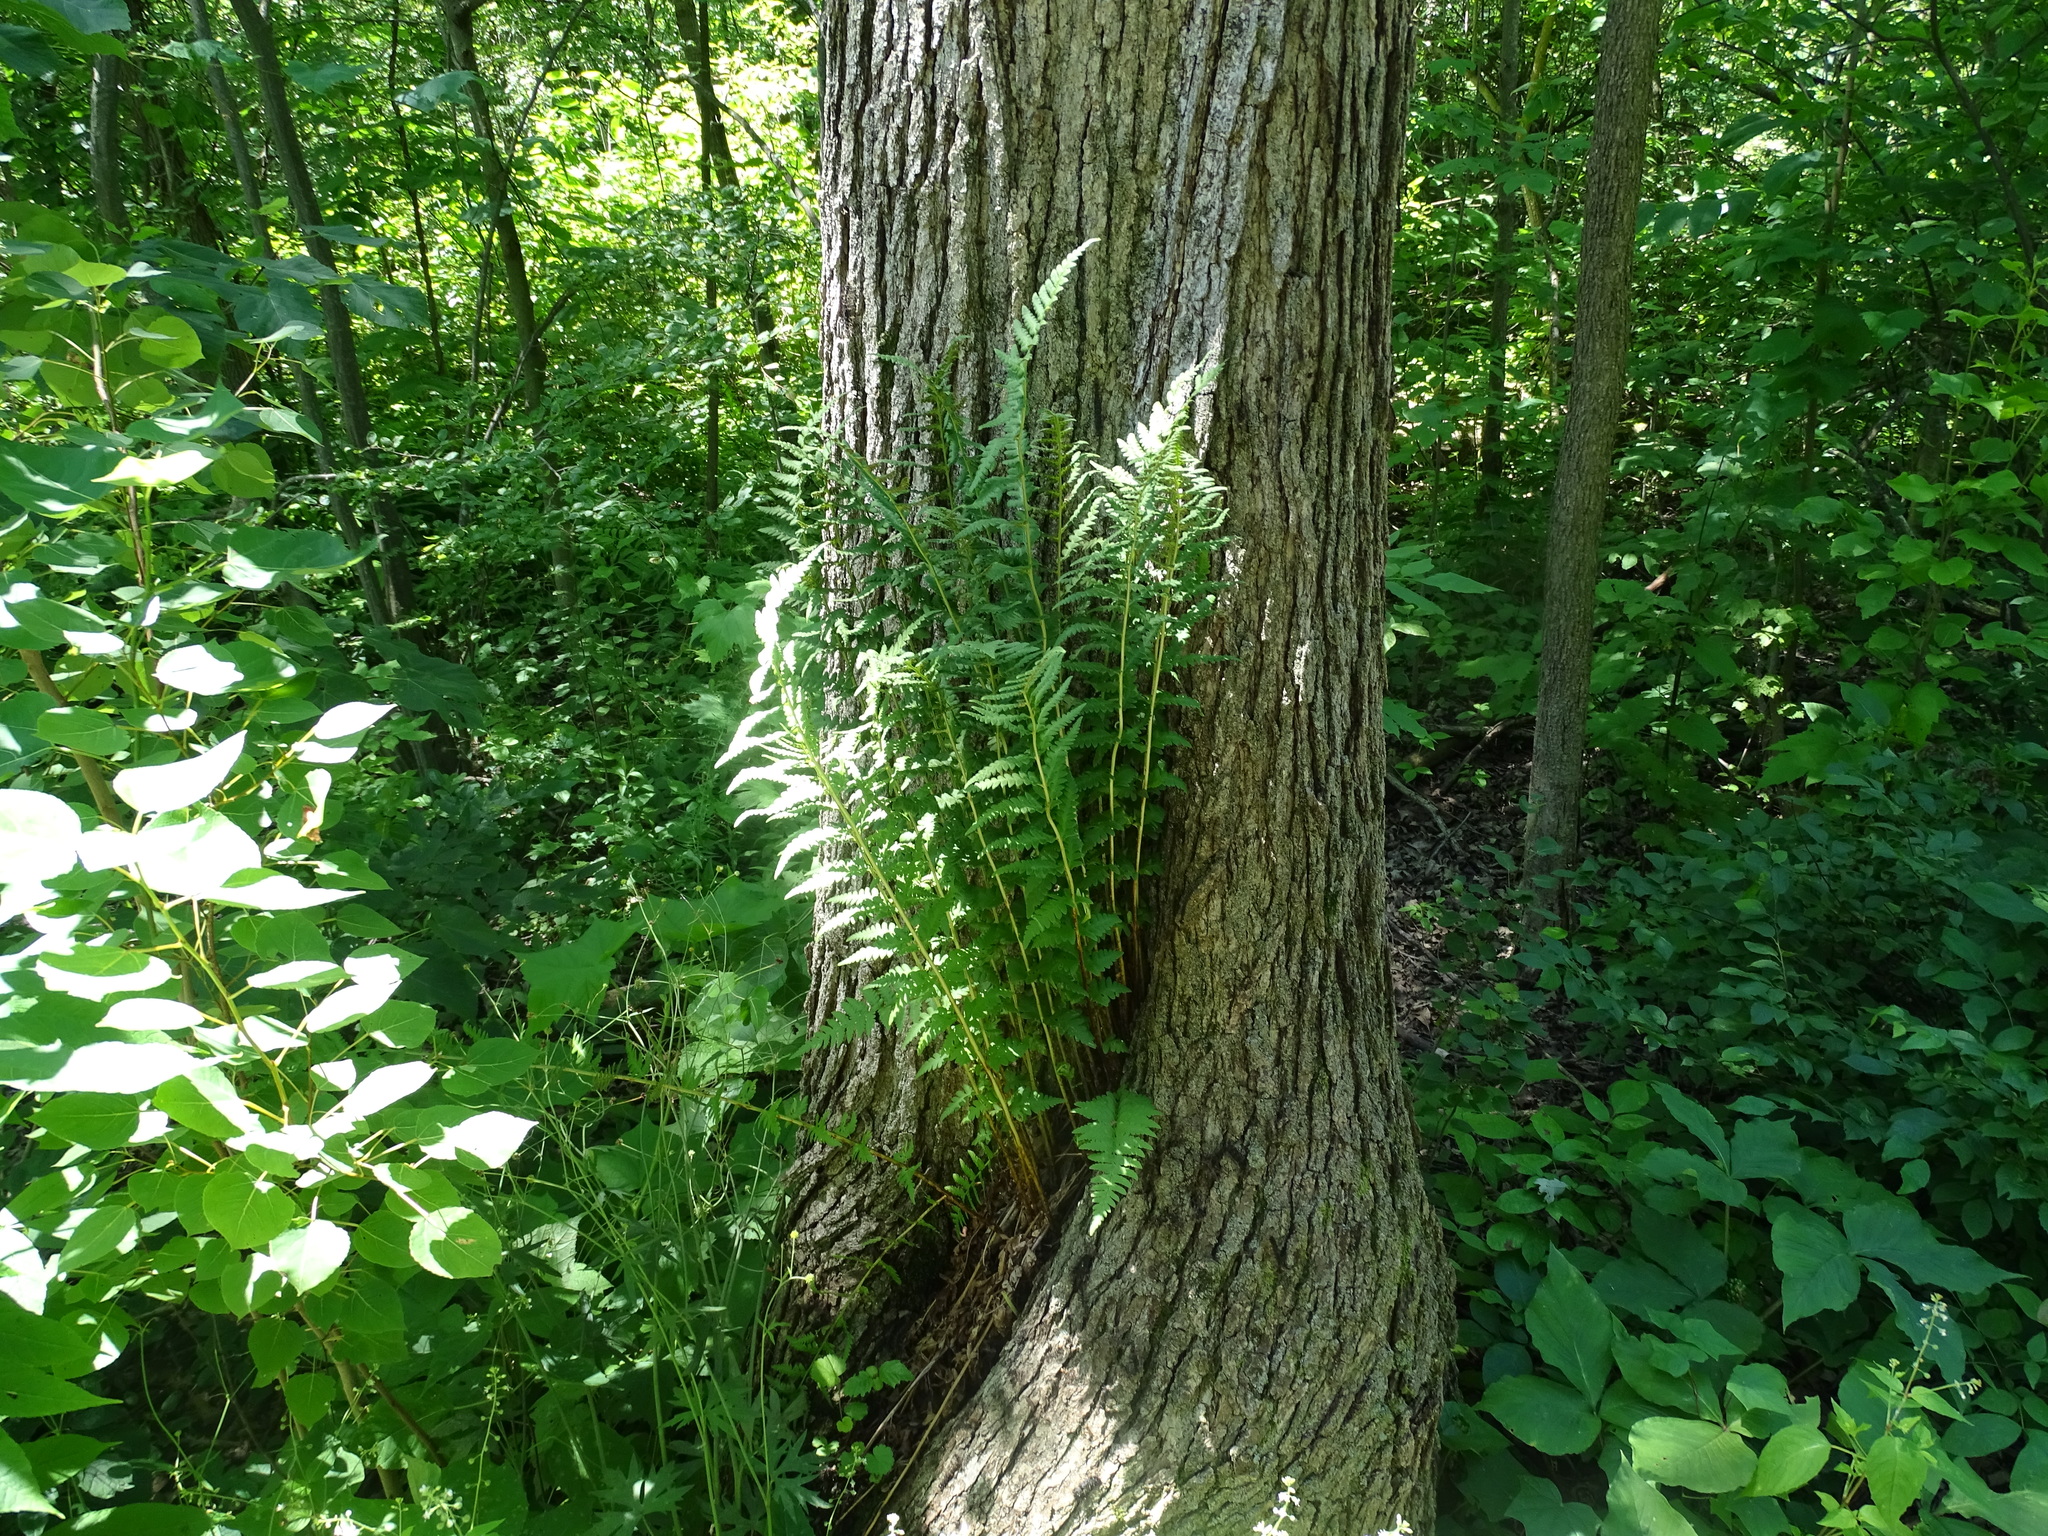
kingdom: Plantae
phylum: Tracheophyta
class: Polypodiopsida
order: Polypodiales
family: Dryopteridaceae
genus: Dryopteris
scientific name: Dryopteris cristata
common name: Crested wood fern
